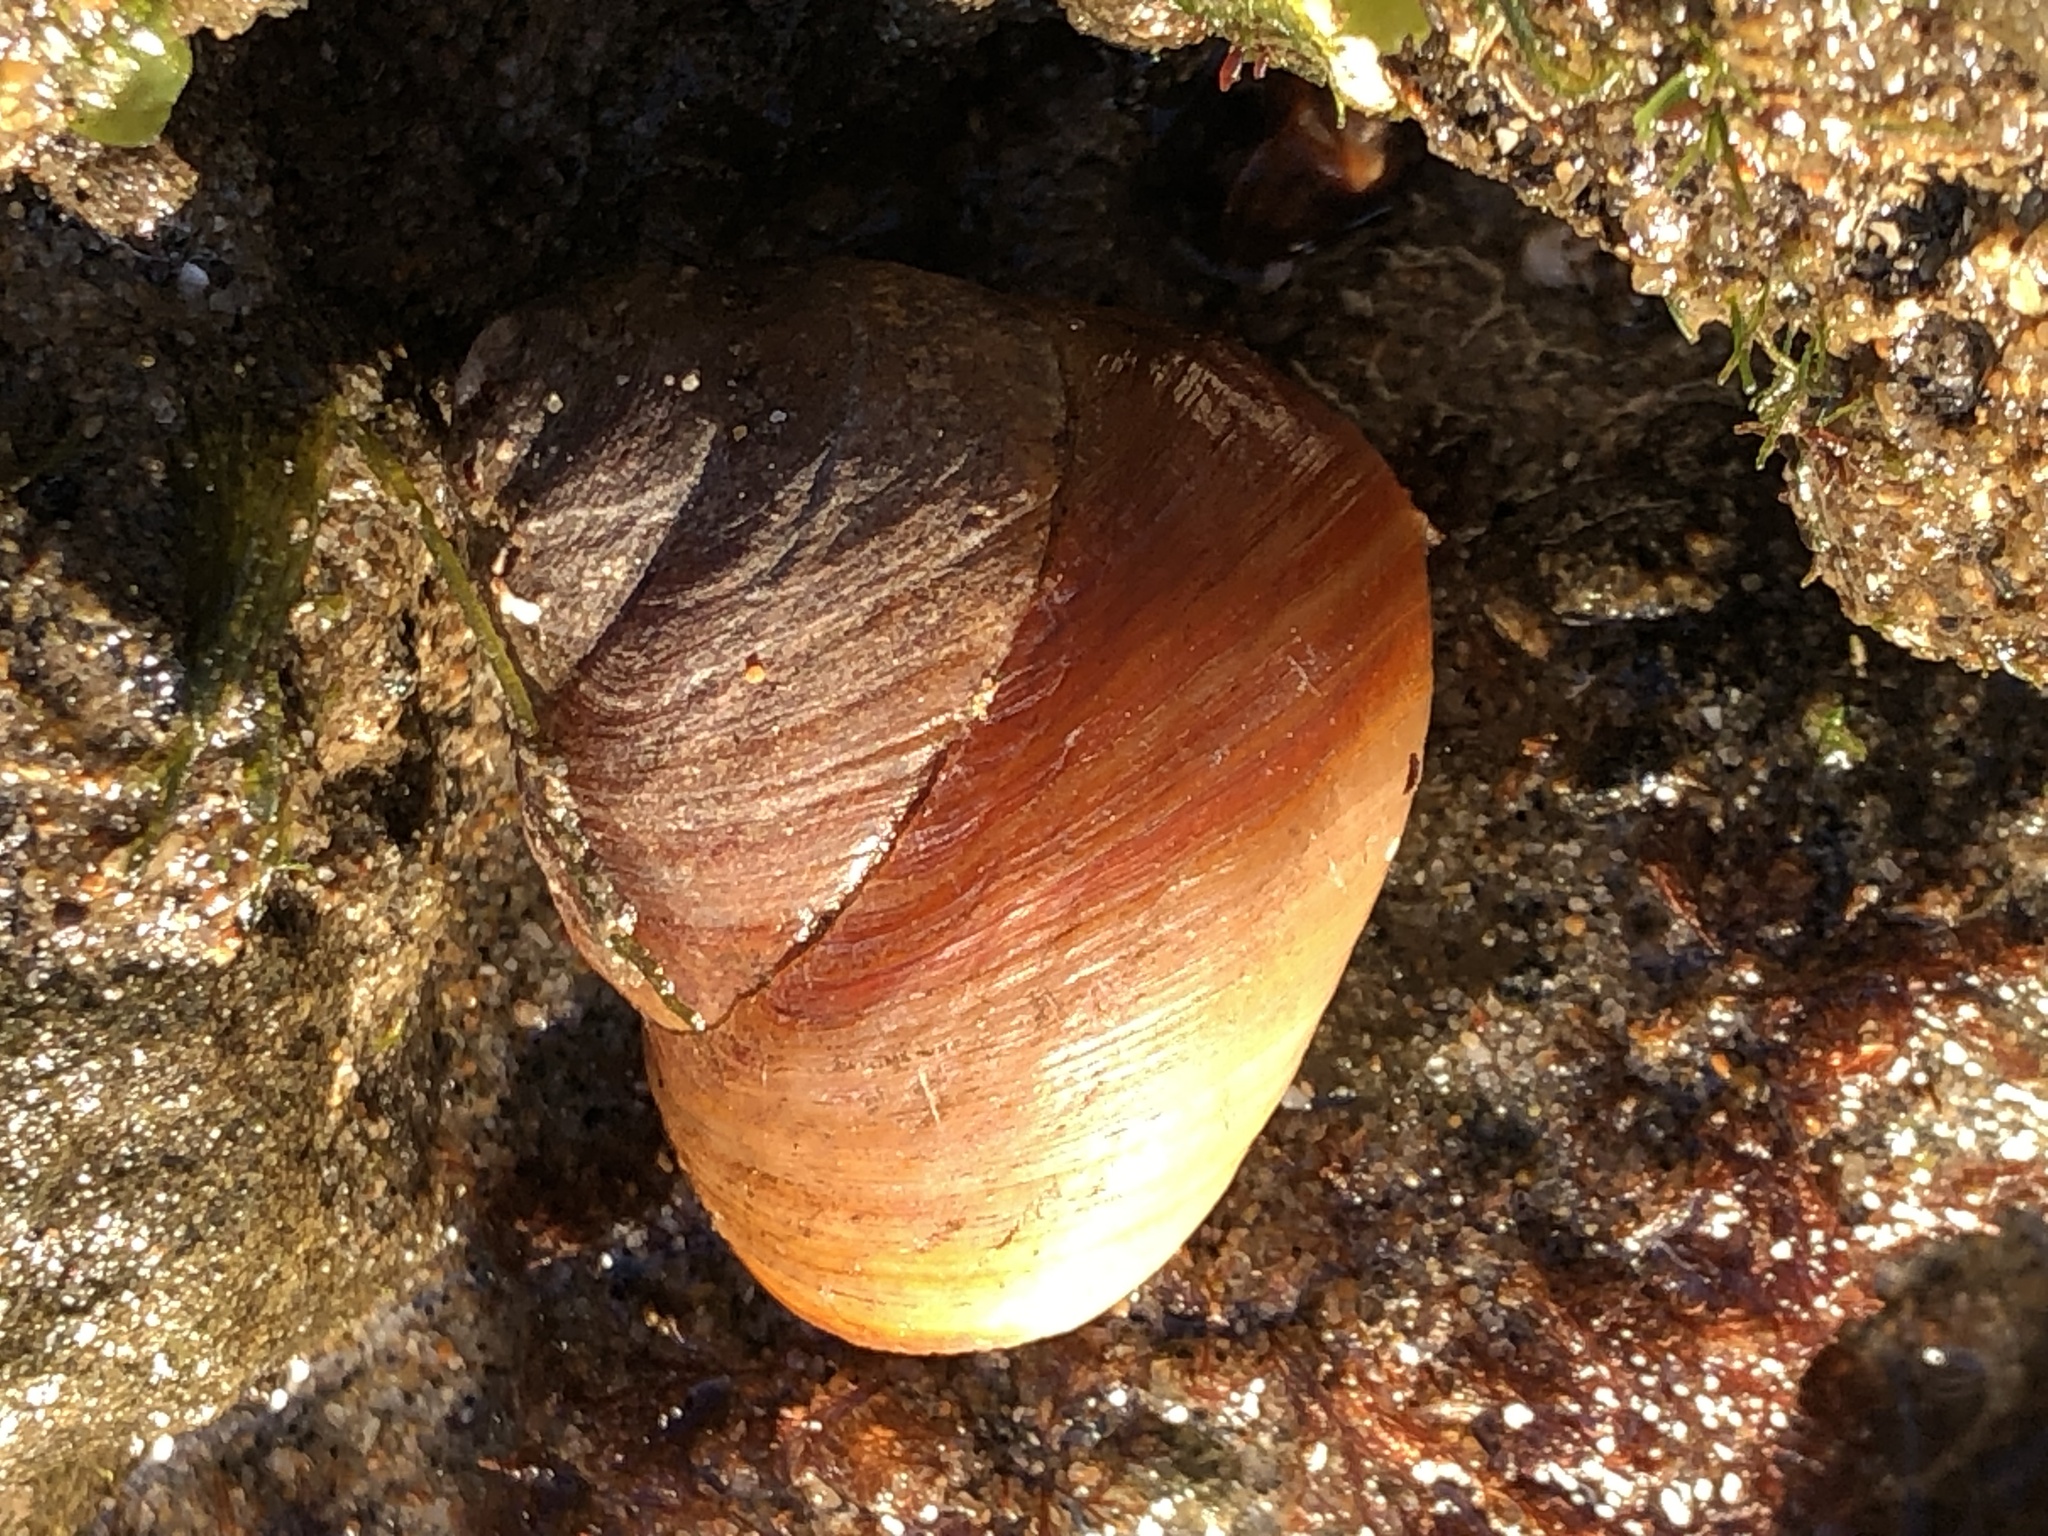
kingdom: Animalia
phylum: Mollusca
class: Gastropoda
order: Trochida
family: Tegulidae
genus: Tegula
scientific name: Tegula brunnea
